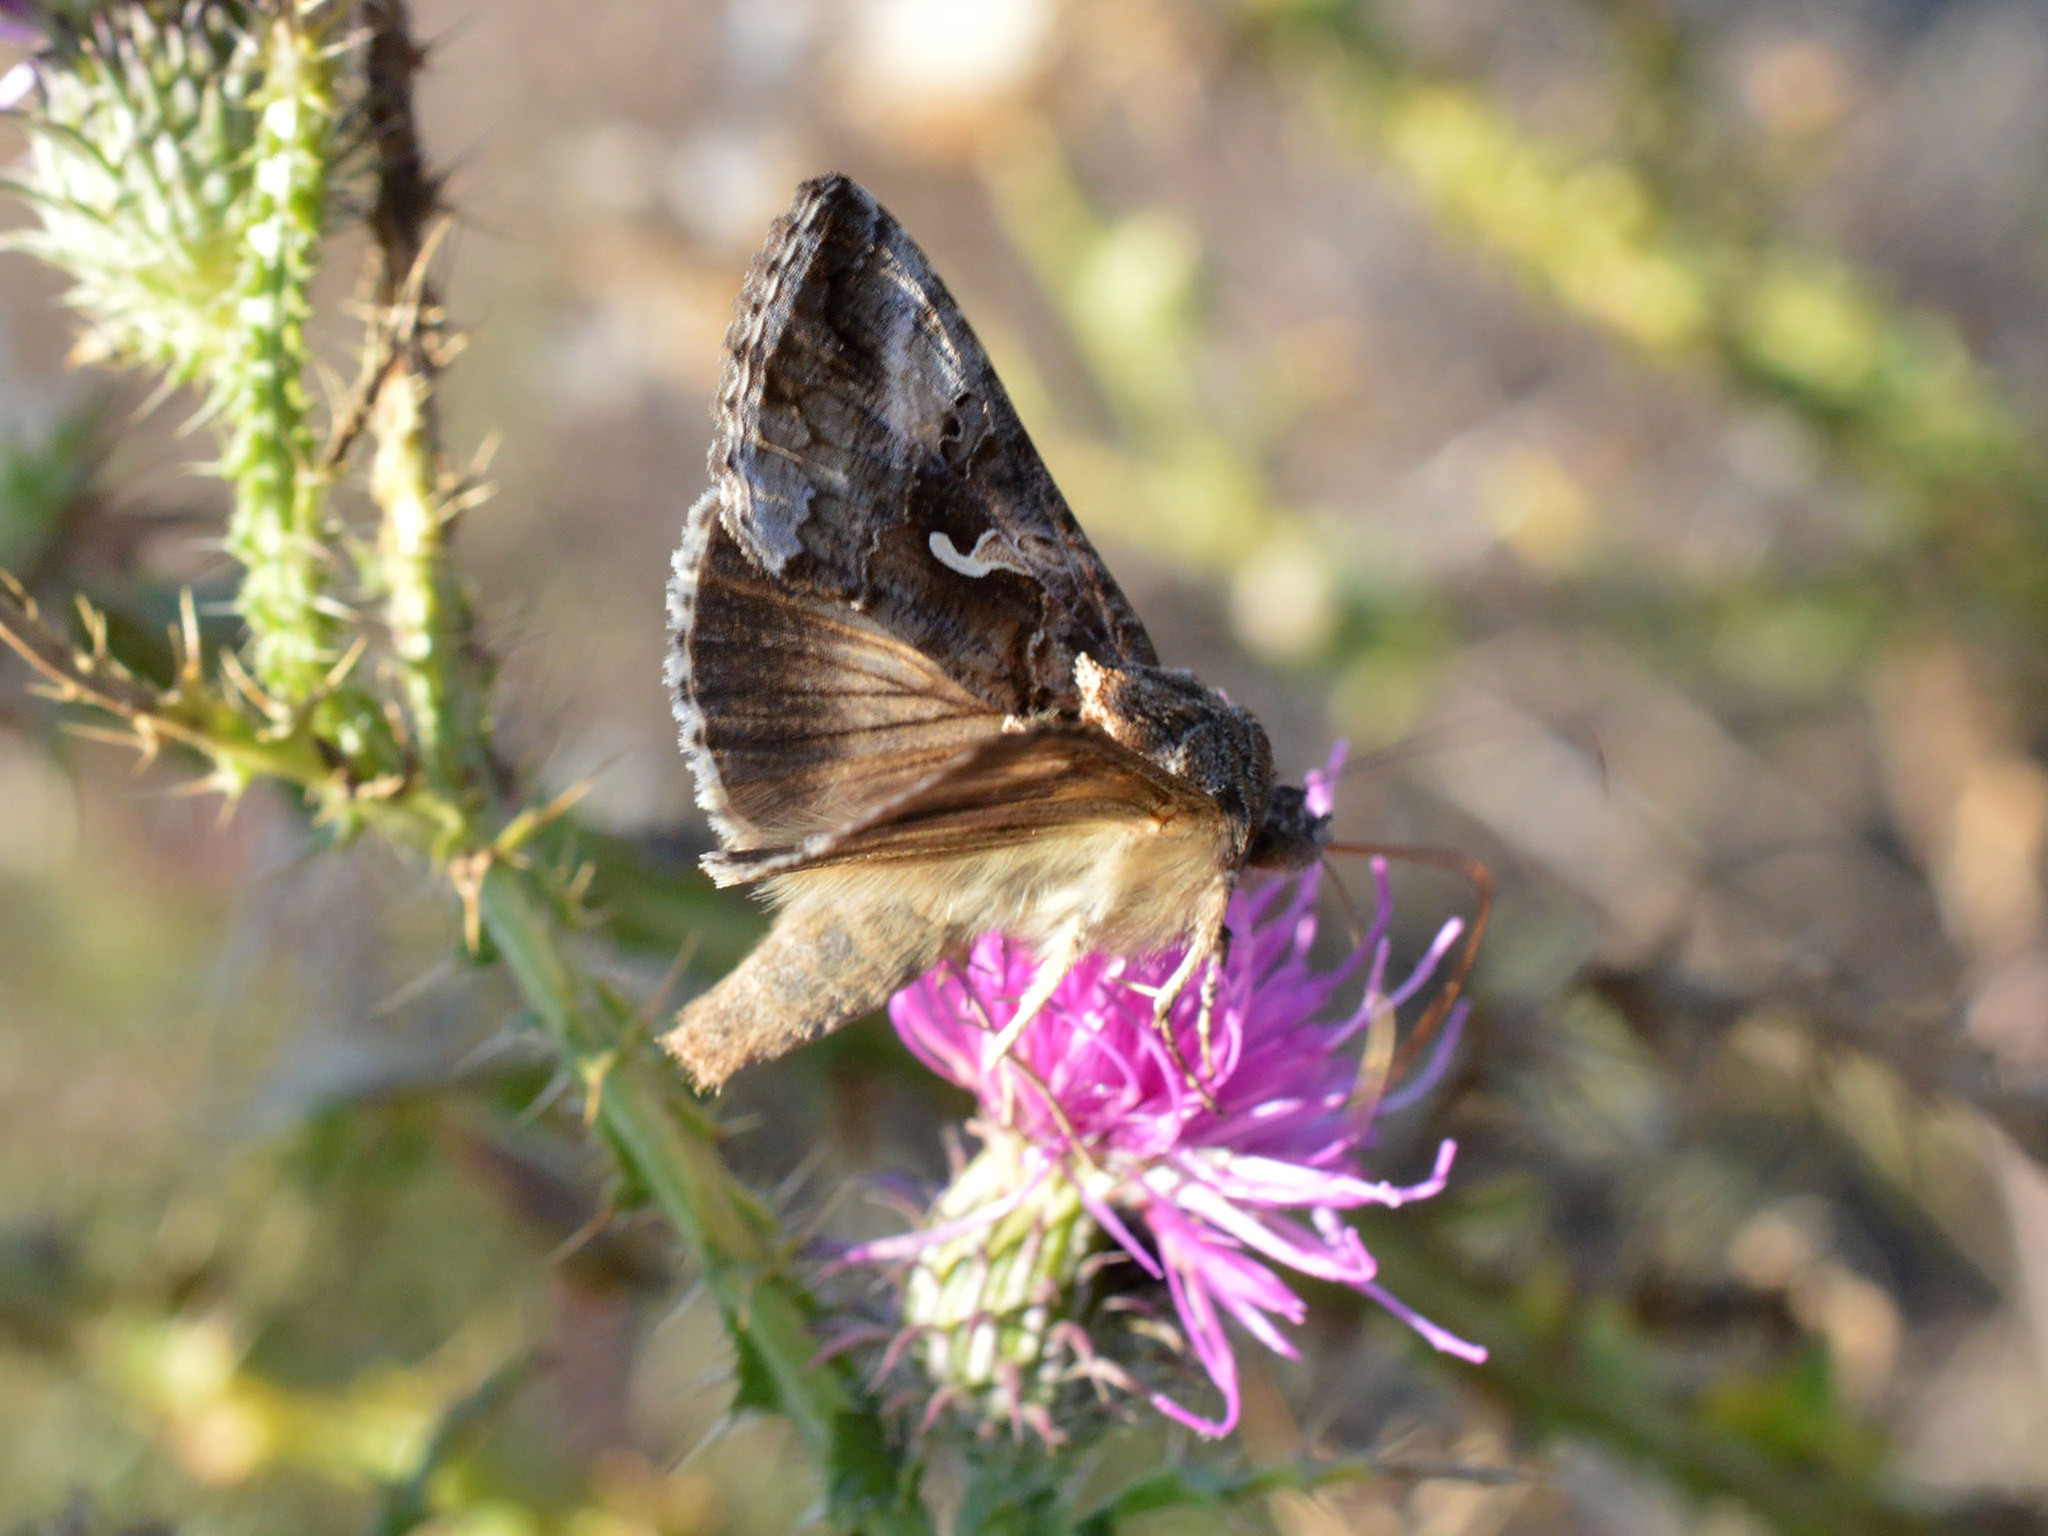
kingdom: Animalia
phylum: Arthropoda
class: Insecta
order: Lepidoptera
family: Noctuidae
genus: Autographa
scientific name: Autographa gamma
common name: Silver y
